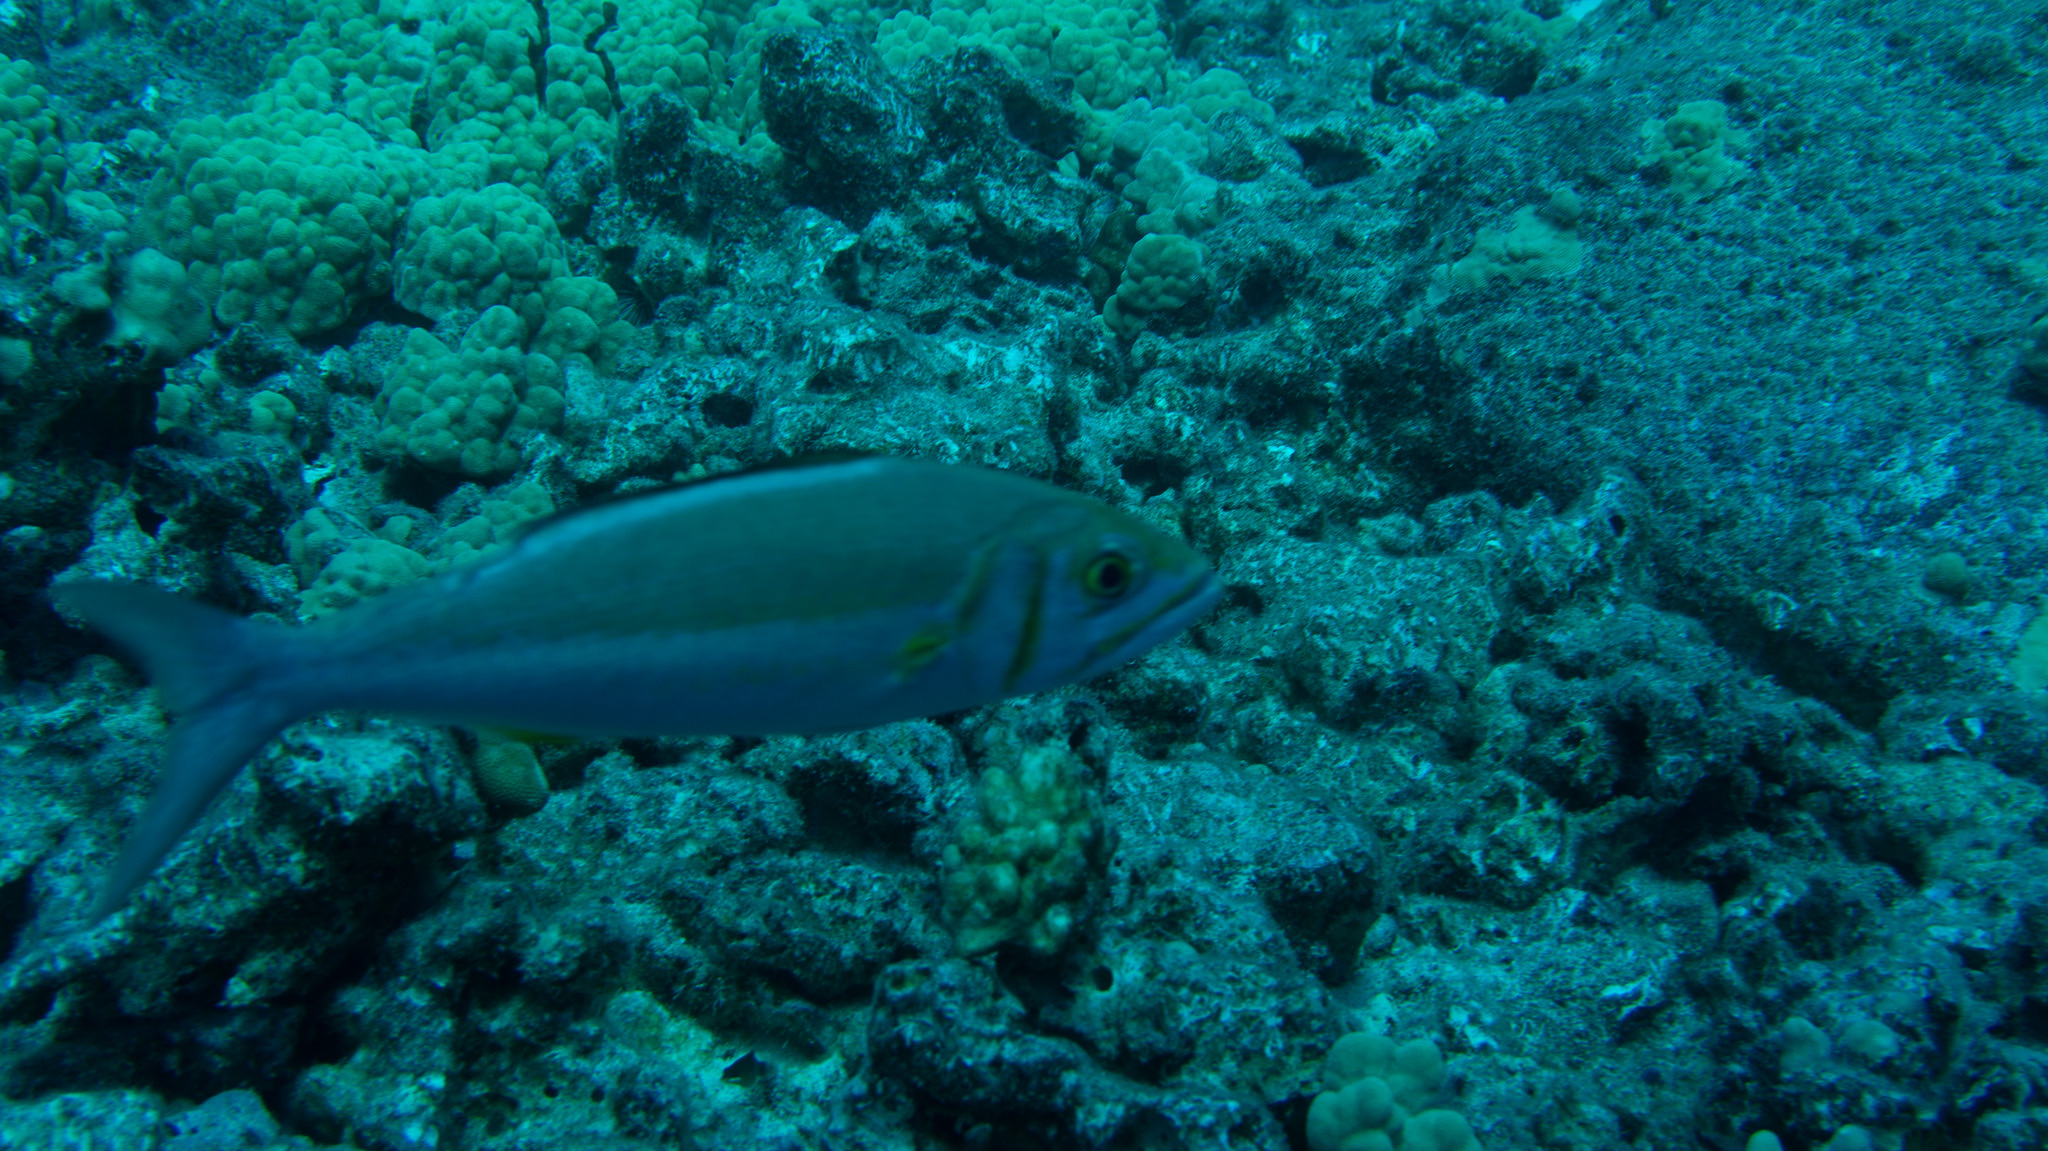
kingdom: Animalia
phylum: Chordata
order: Perciformes
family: Lutjanidae
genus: Aphareus
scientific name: Aphareus furca
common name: Smalltooth jobfish
